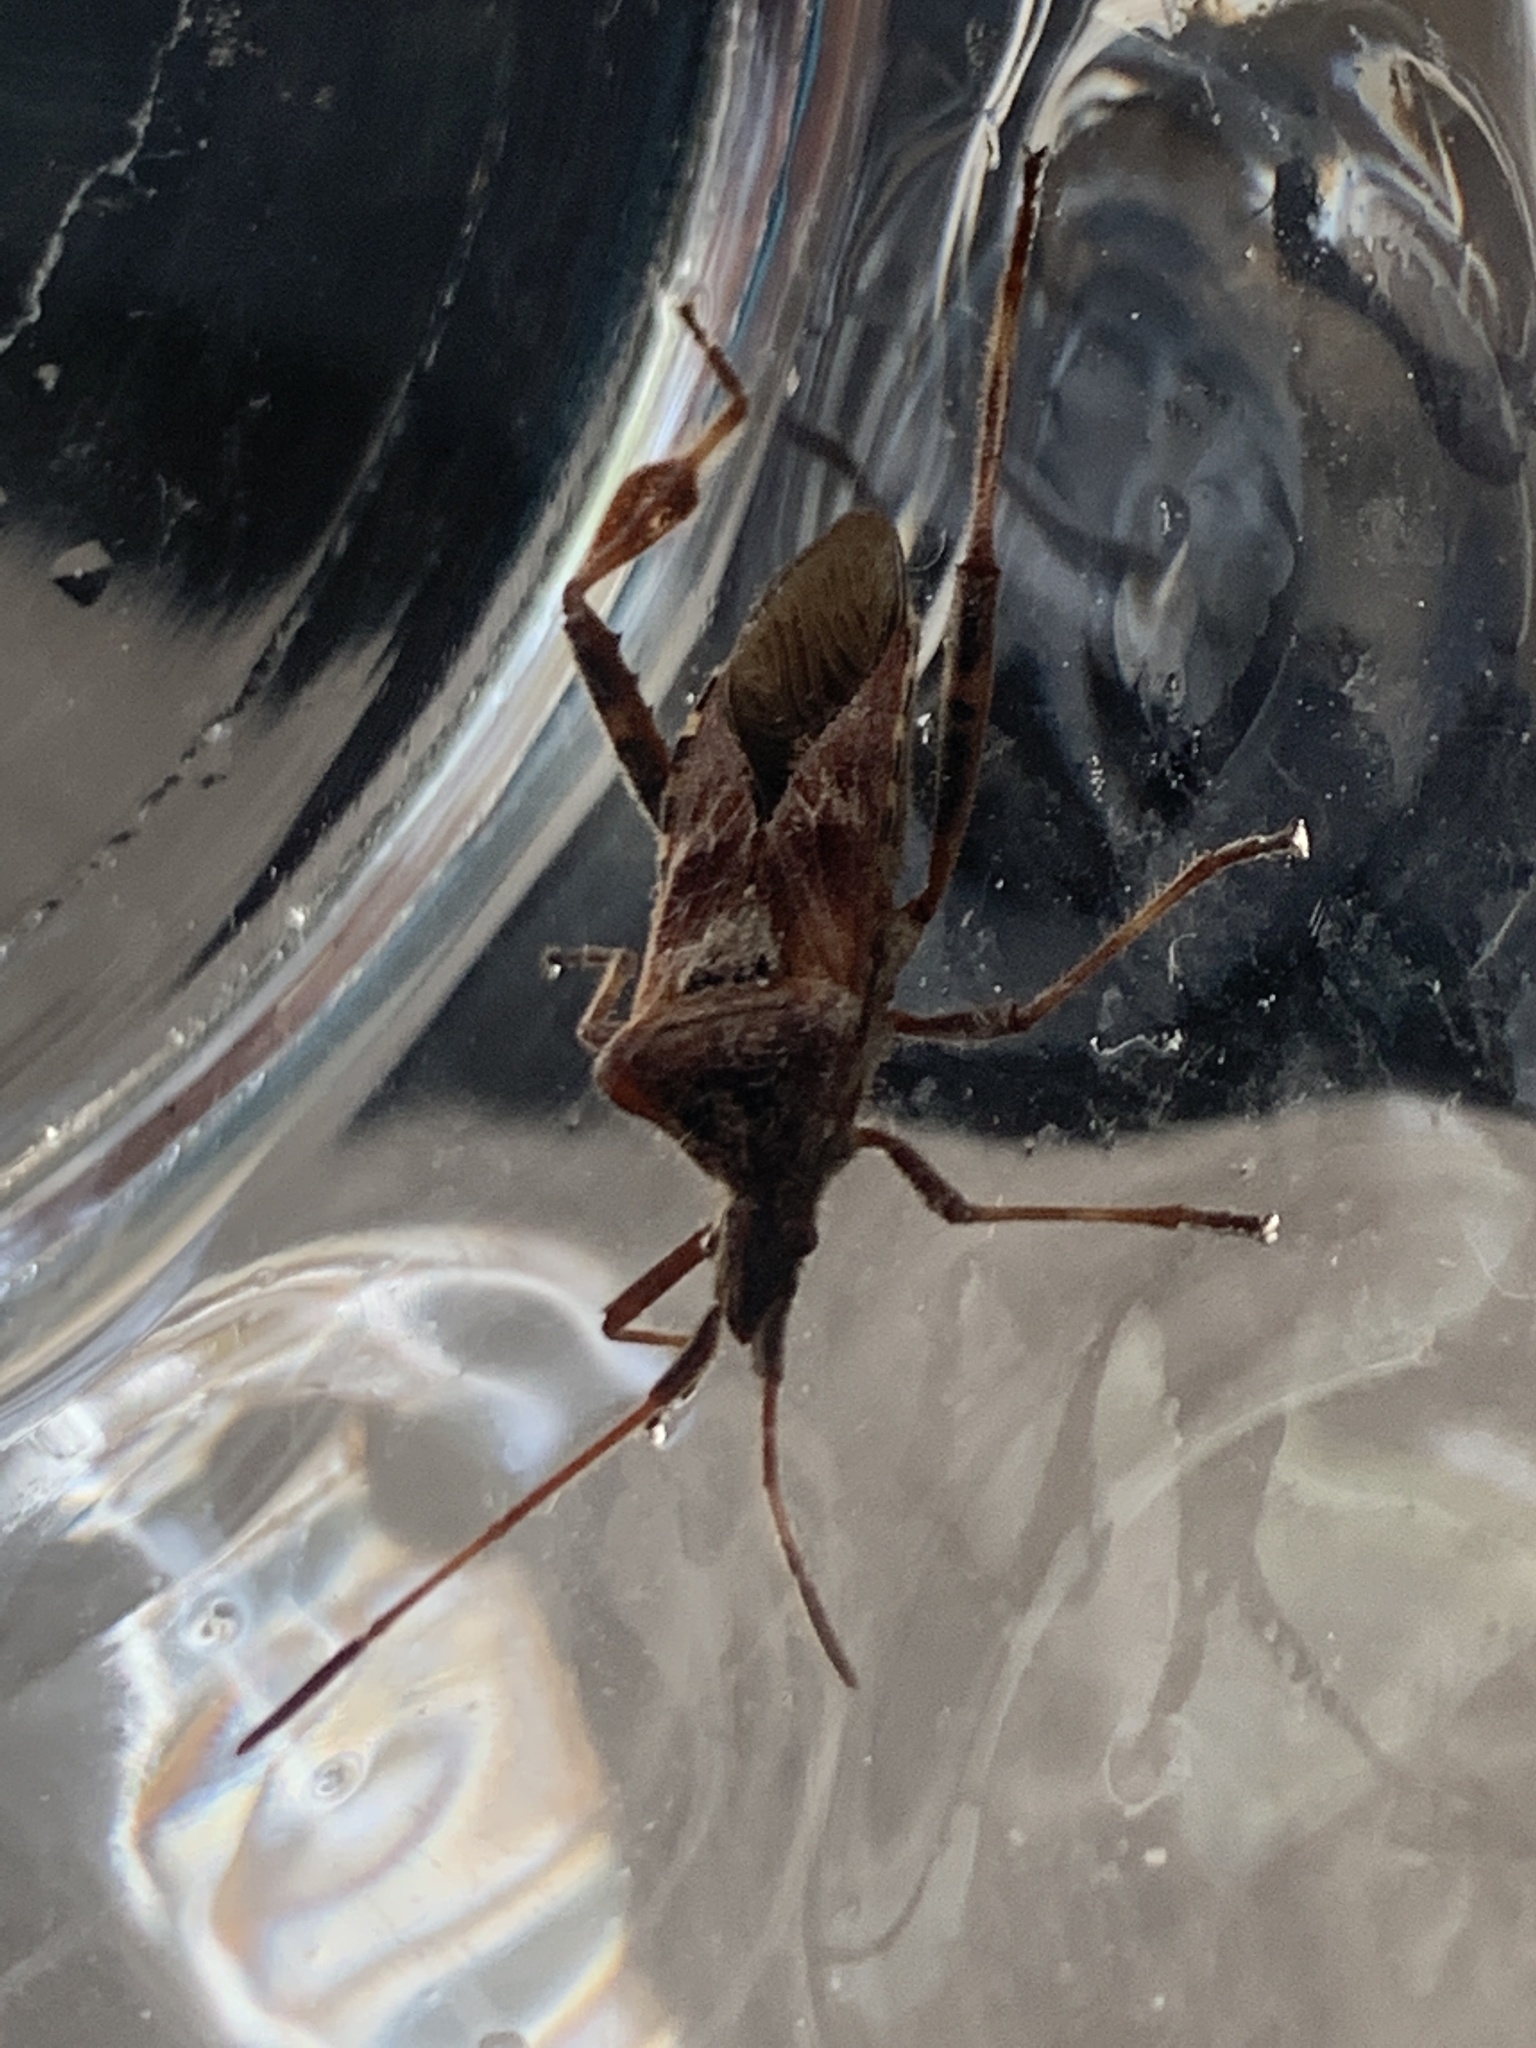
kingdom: Animalia
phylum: Arthropoda
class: Insecta
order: Hemiptera
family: Coreidae
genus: Leptoglossus
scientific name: Leptoglossus occidentalis
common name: Western conifer-seed bug
